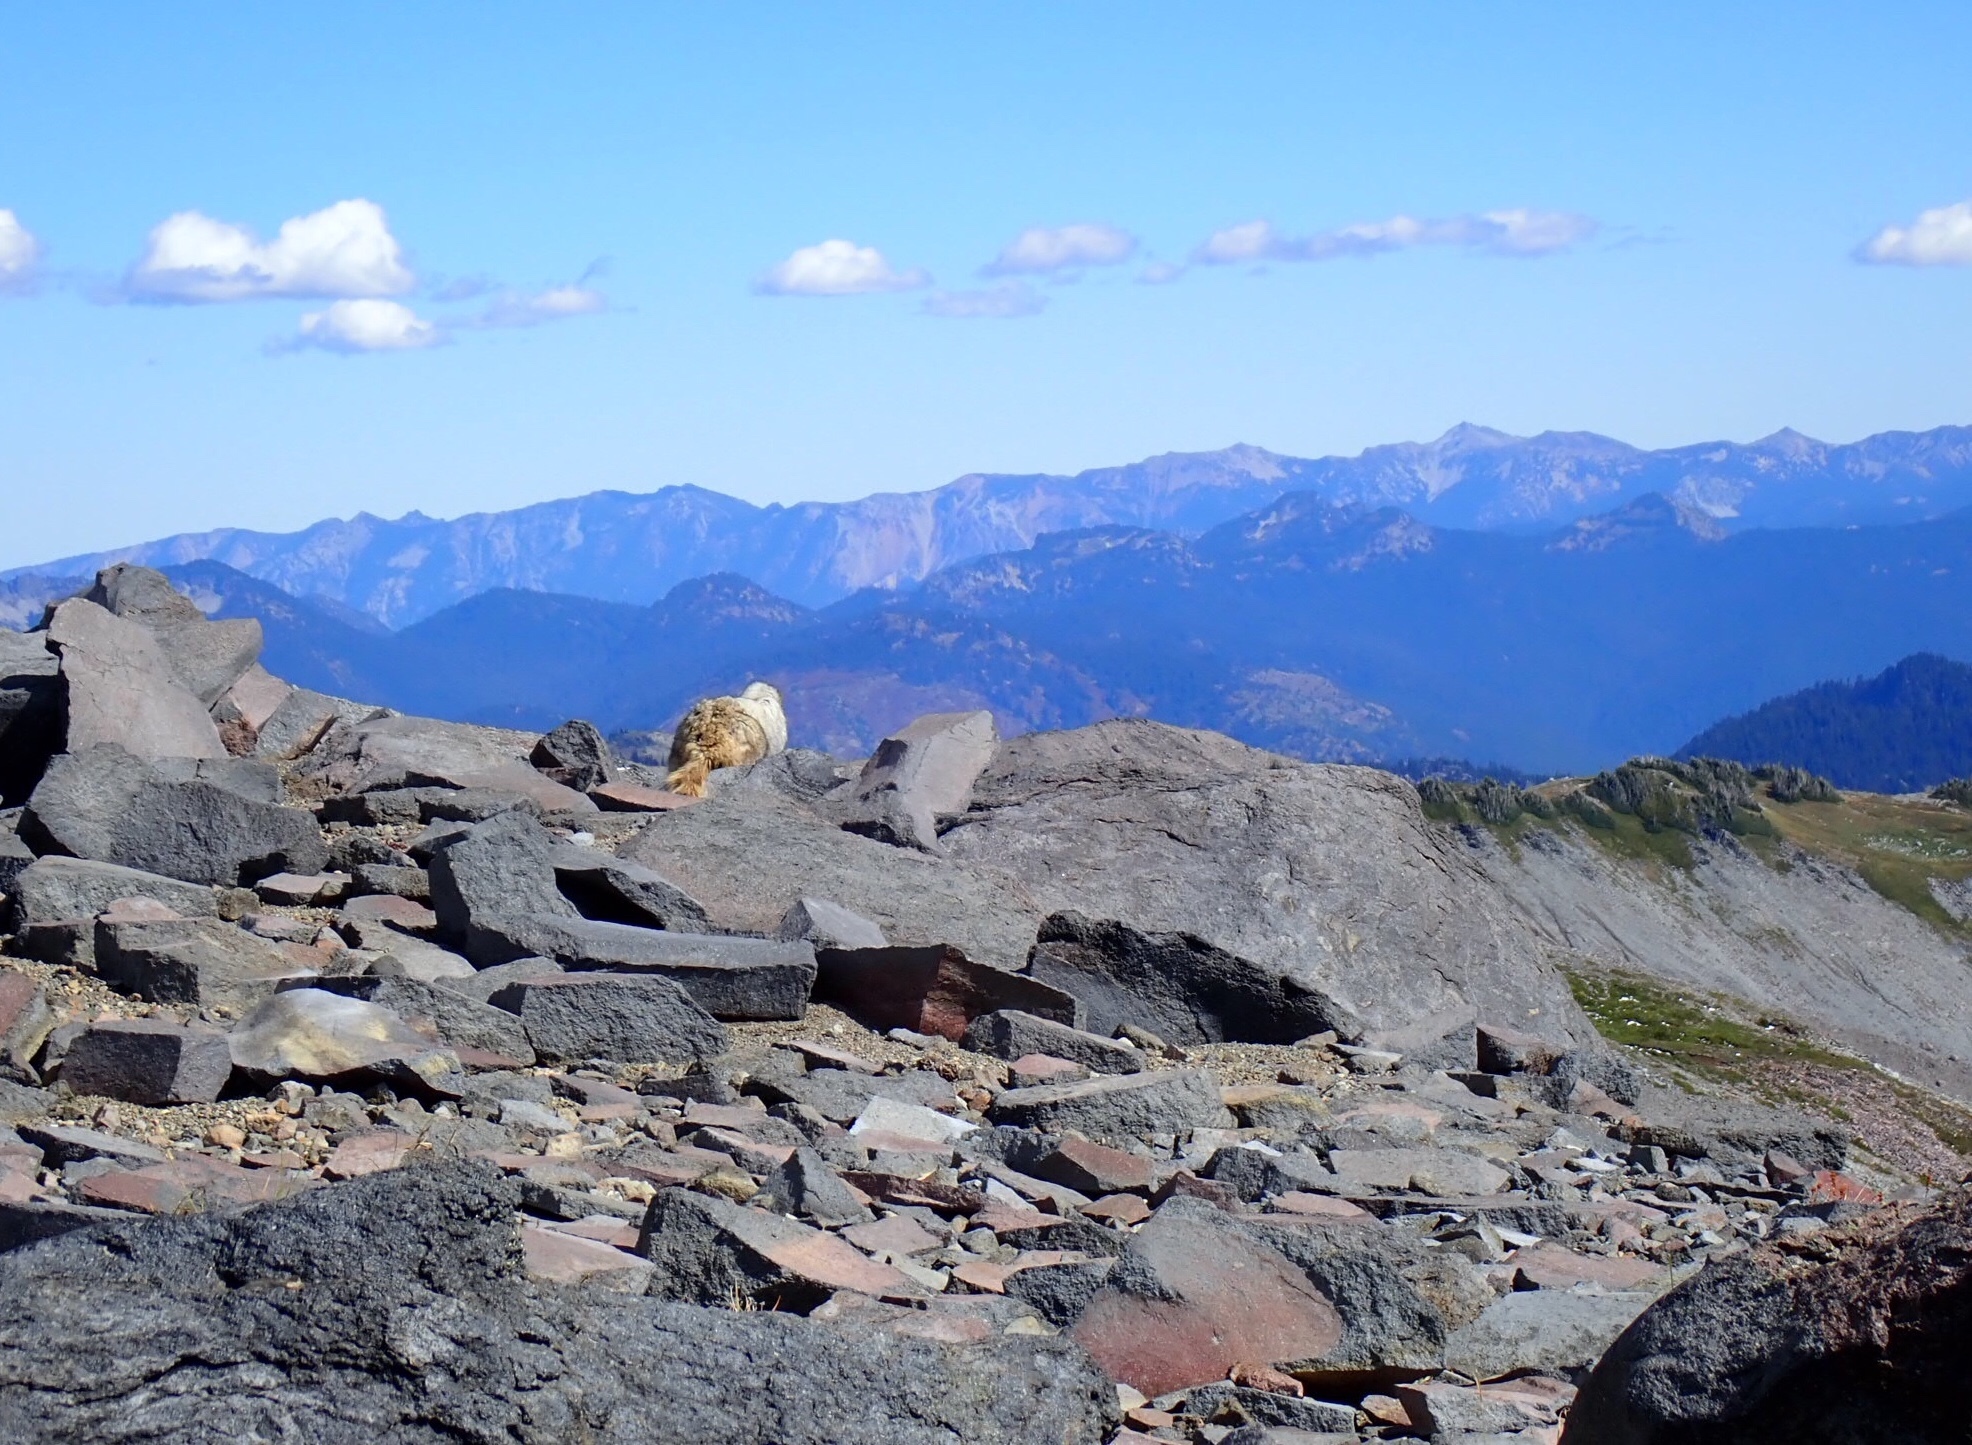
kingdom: Animalia
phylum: Chordata
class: Mammalia
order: Rodentia
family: Sciuridae
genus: Marmota
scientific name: Marmota caligata
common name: Hoary marmot
